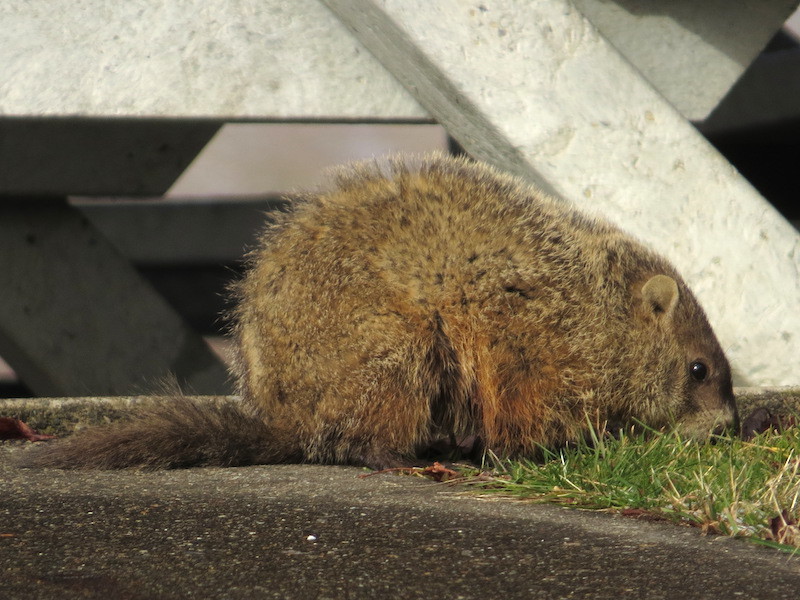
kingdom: Animalia
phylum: Chordata
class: Mammalia
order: Rodentia
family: Sciuridae
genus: Marmota
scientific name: Marmota monax
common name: Groundhog
